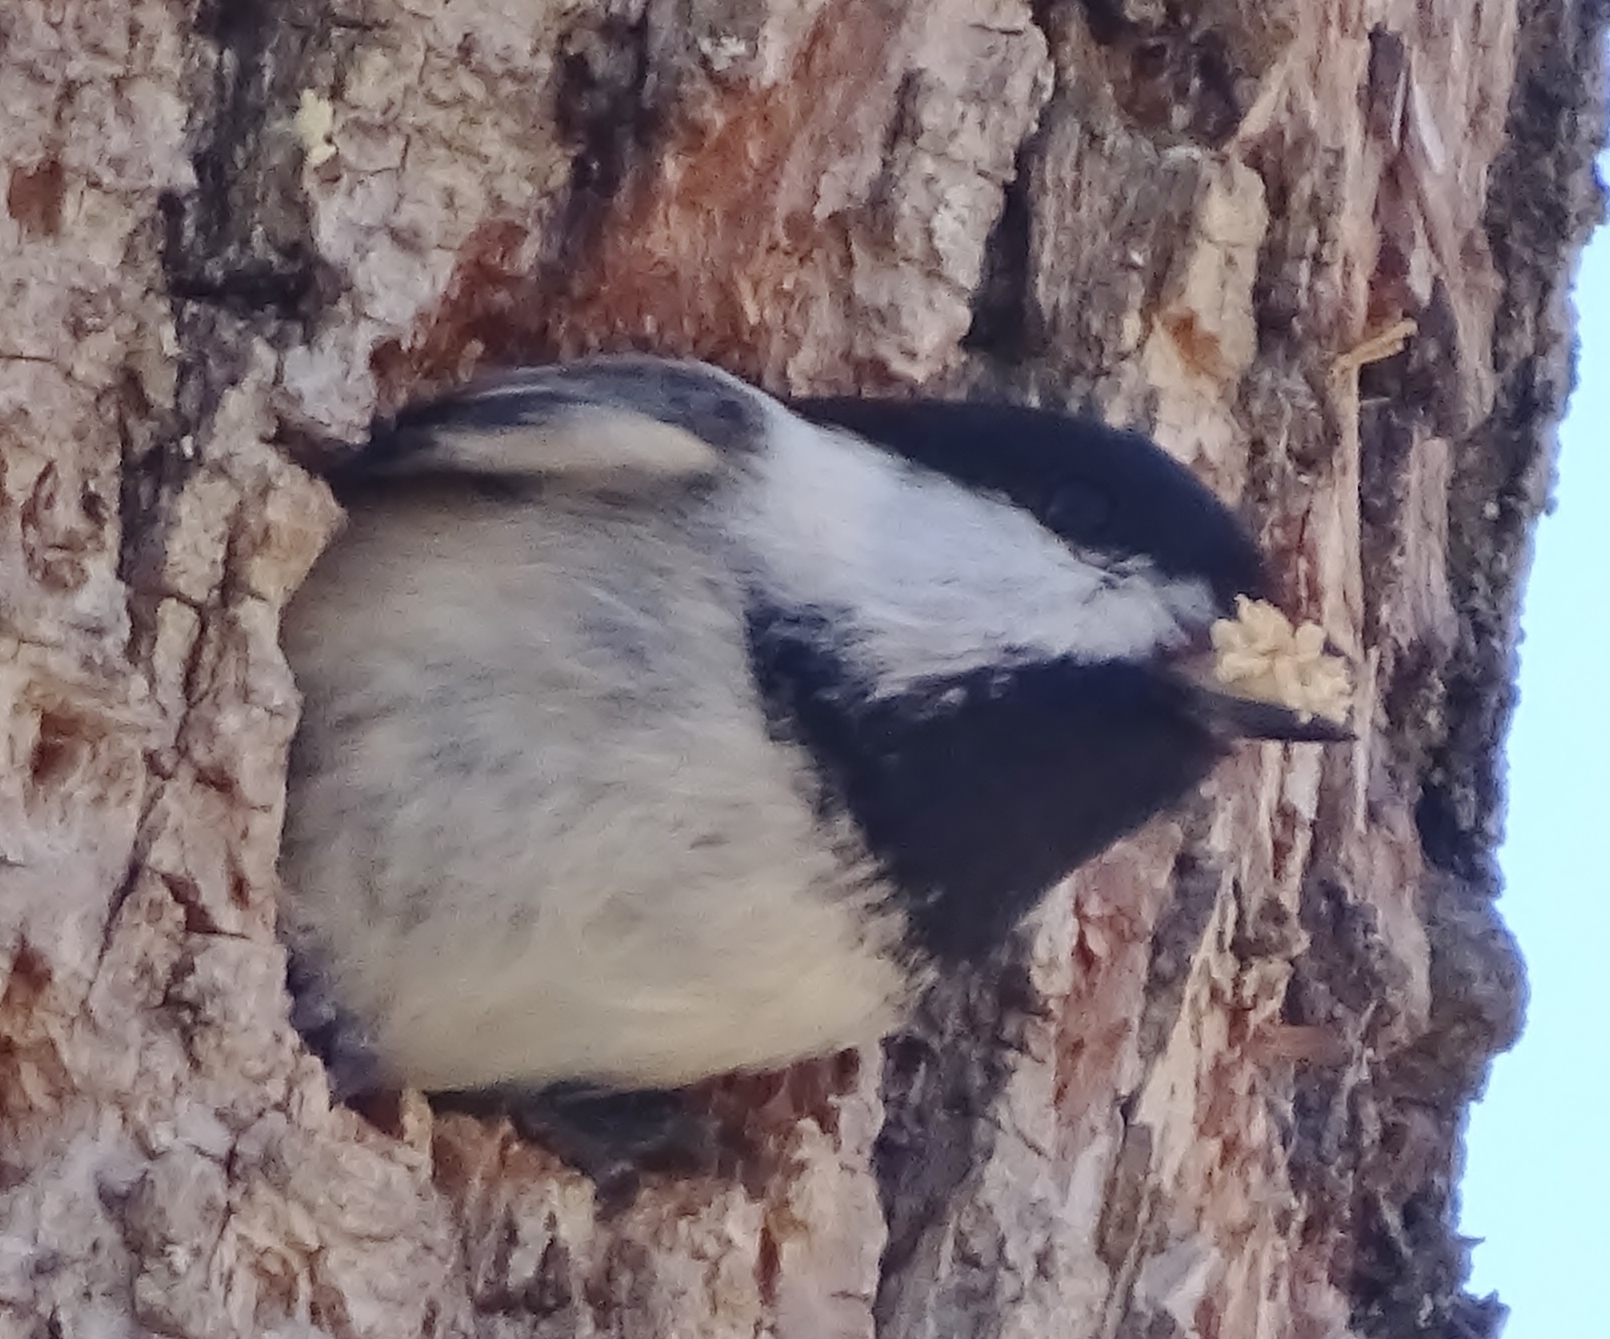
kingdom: Animalia
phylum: Chordata
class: Aves
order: Passeriformes
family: Paridae
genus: Poecile
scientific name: Poecile atricapillus
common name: Black-capped chickadee
